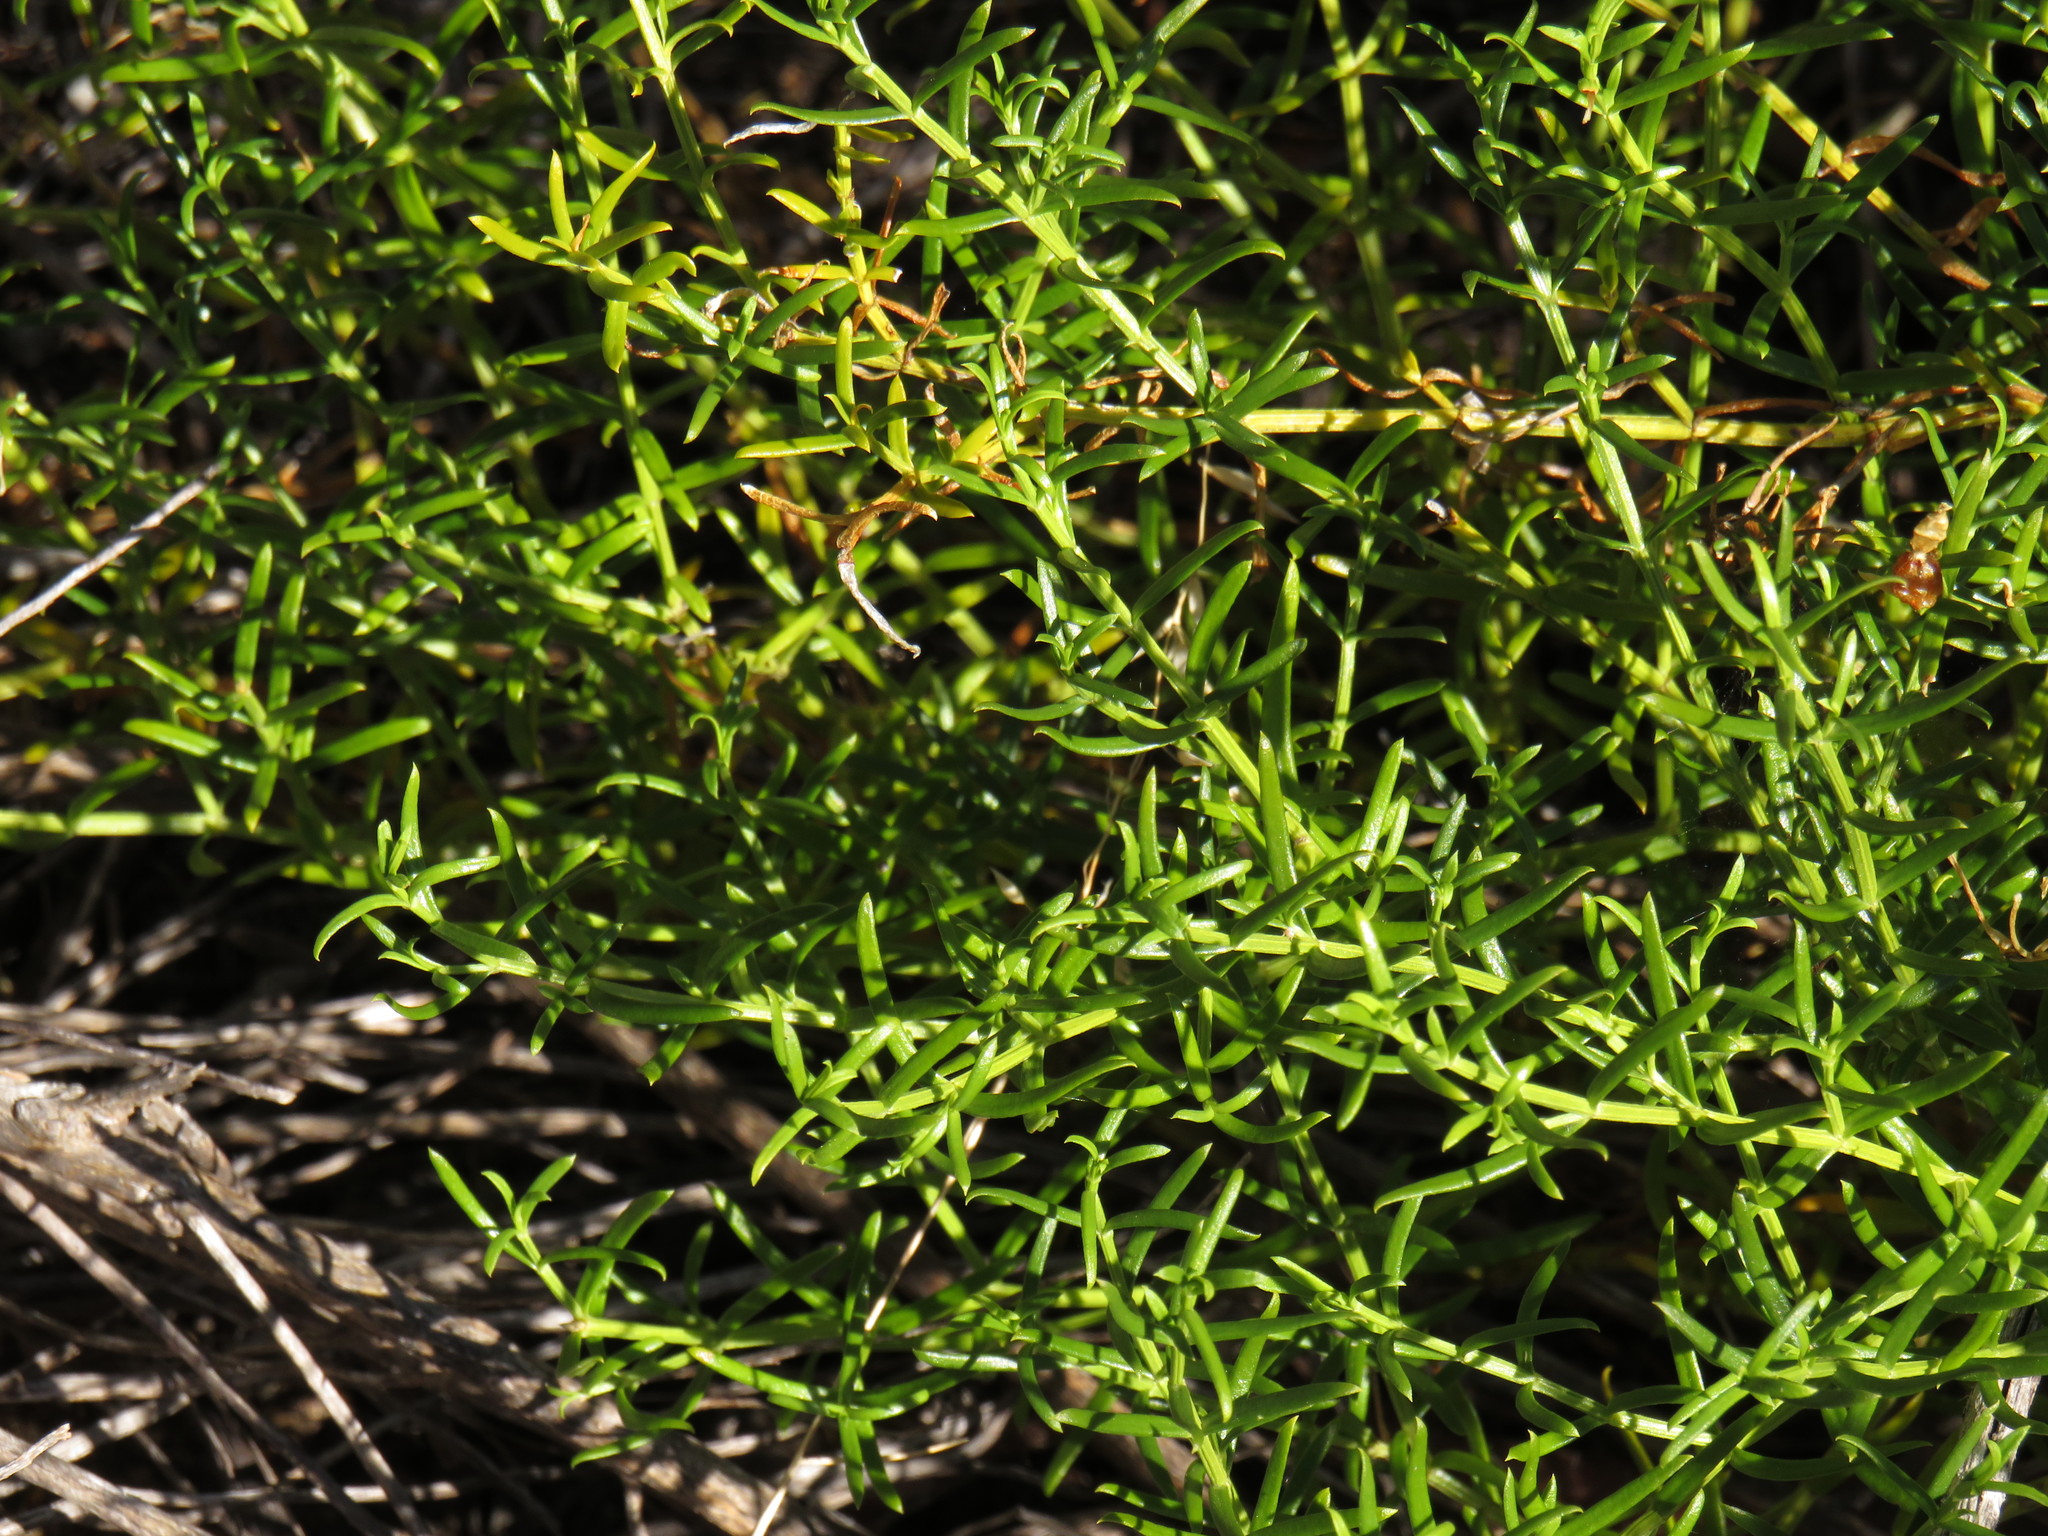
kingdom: Plantae
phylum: Tracheophyta
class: Magnoliopsida
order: Gentianales
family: Gentianaceae
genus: Chironia
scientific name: Chironia baccifera
